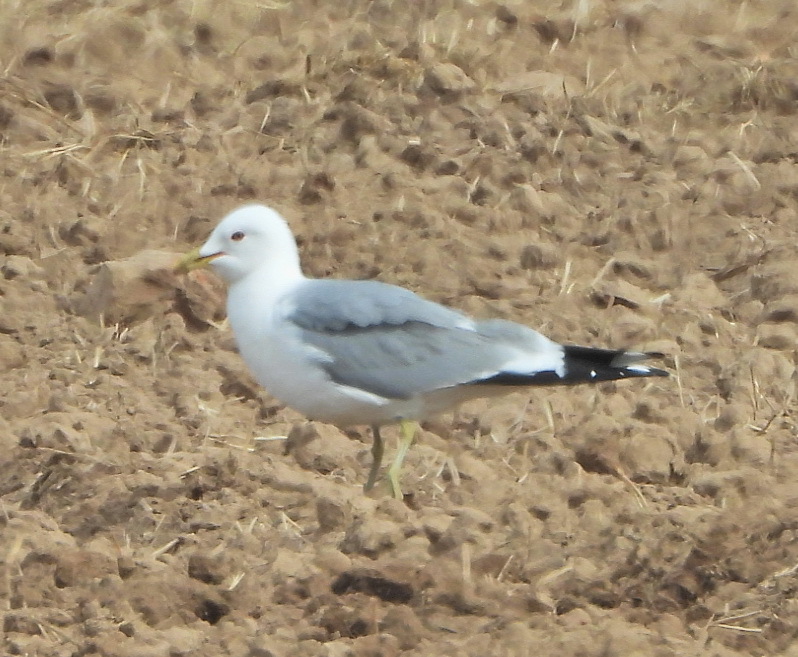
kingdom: Animalia
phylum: Chordata
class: Aves
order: Charadriiformes
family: Laridae
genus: Larus
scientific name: Larus canus
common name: Mew gull
